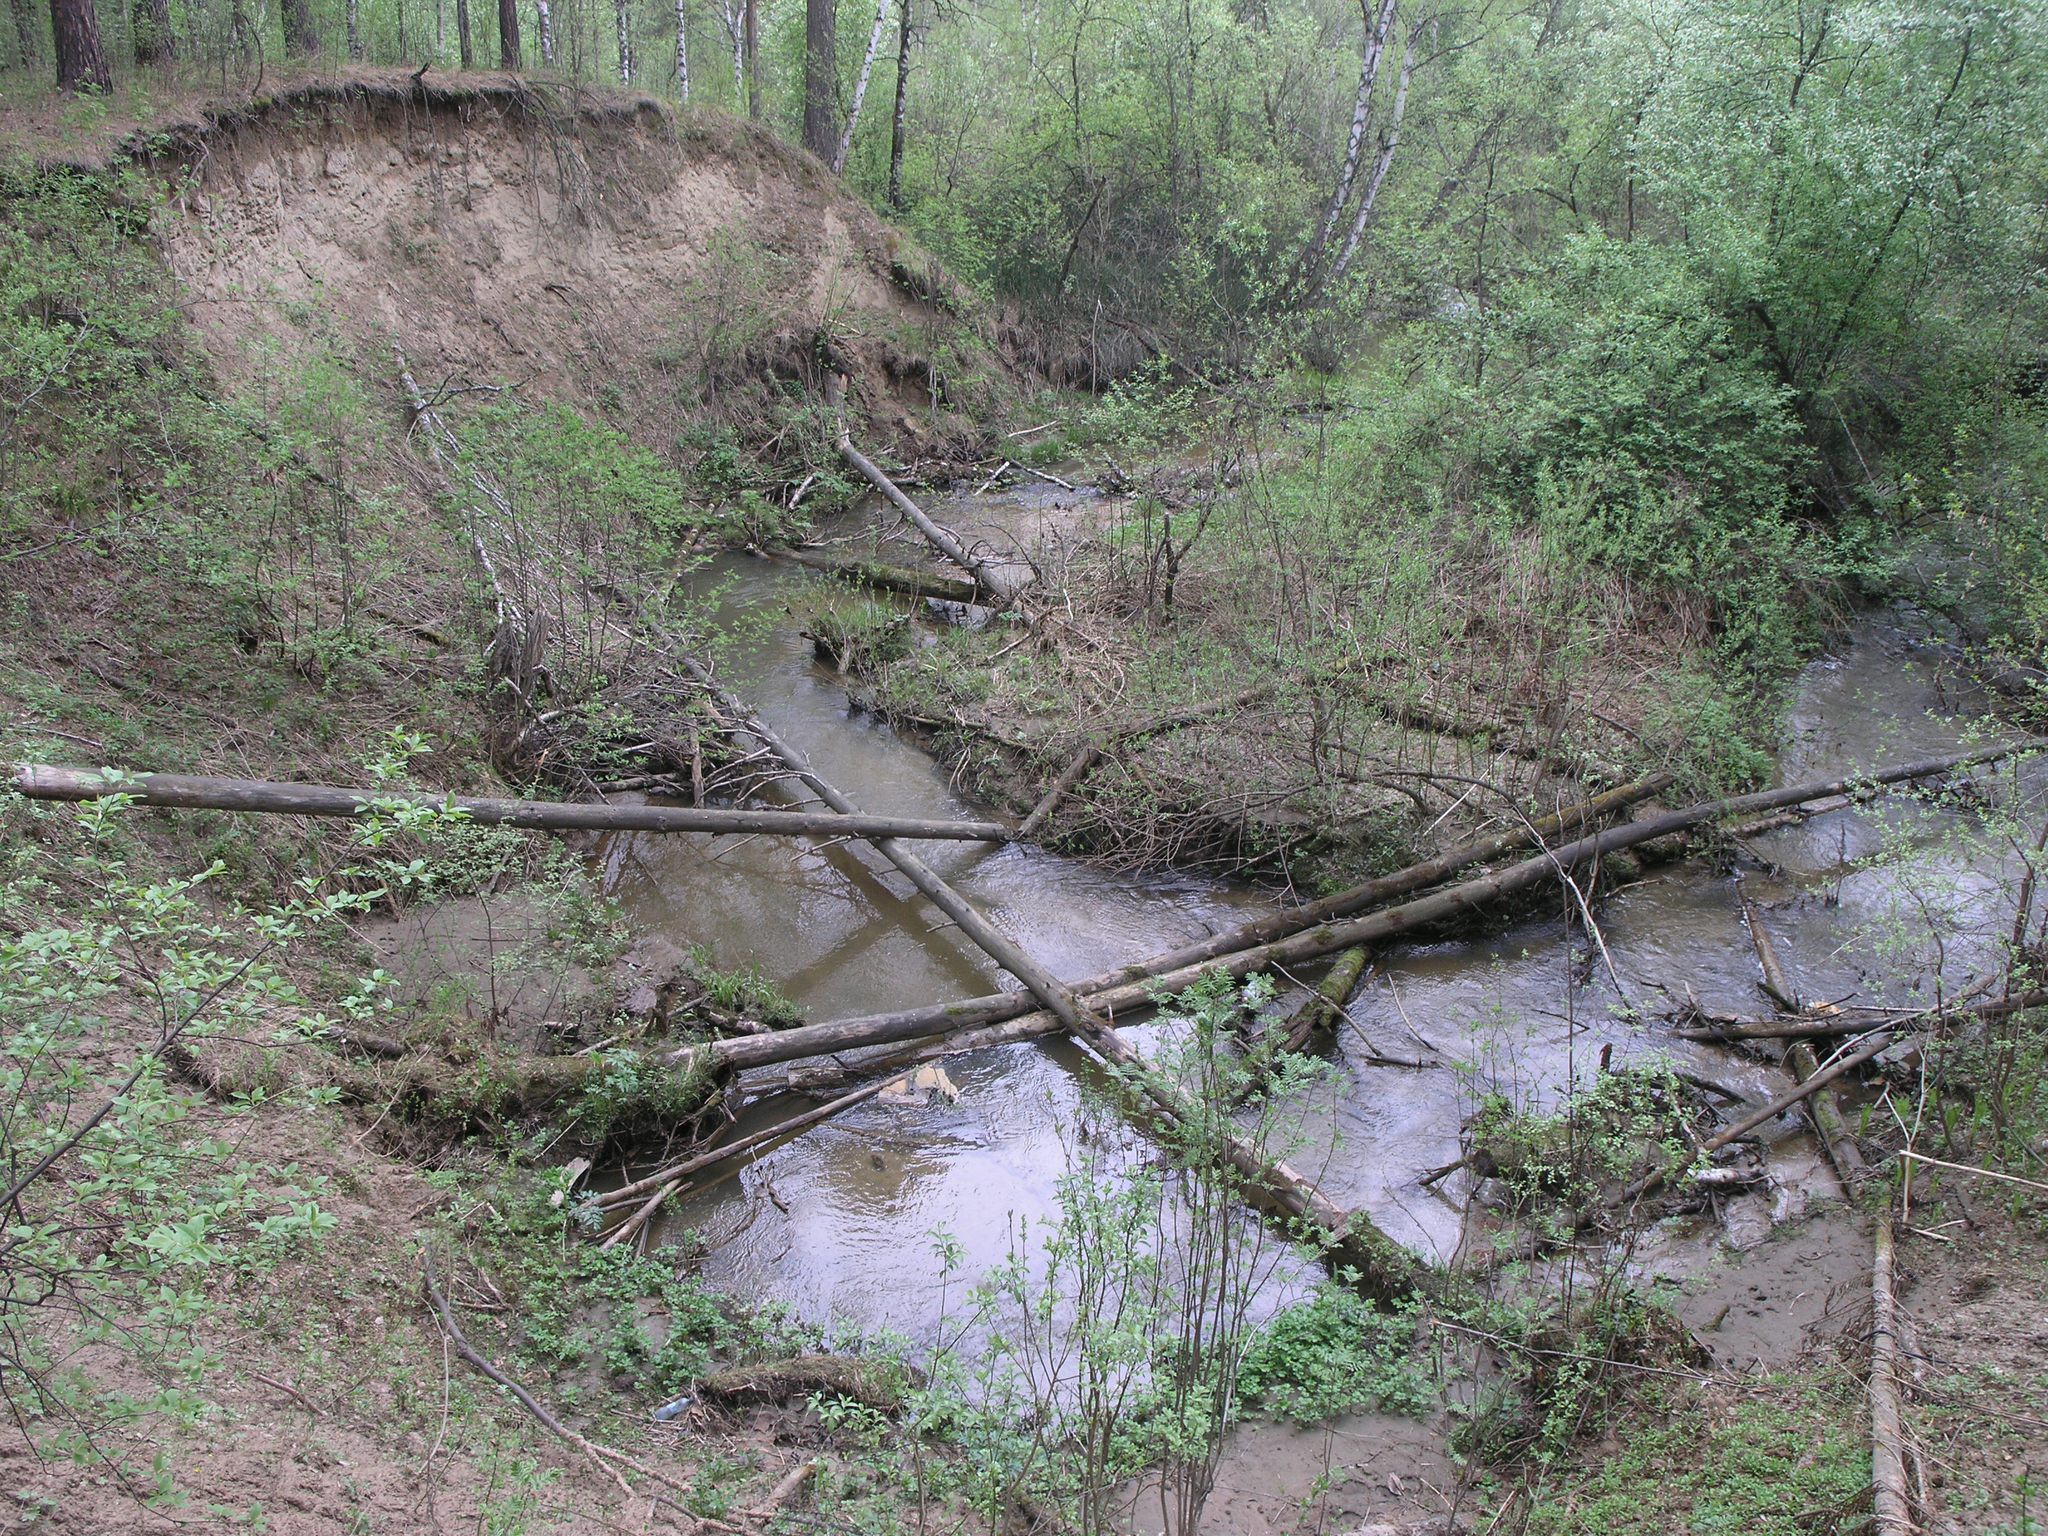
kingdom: Plantae
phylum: Tracheophyta
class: Pinopsida
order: Pinales
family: Pinaceae
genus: Pinus
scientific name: Pinus sylvestris
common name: Scots pine
